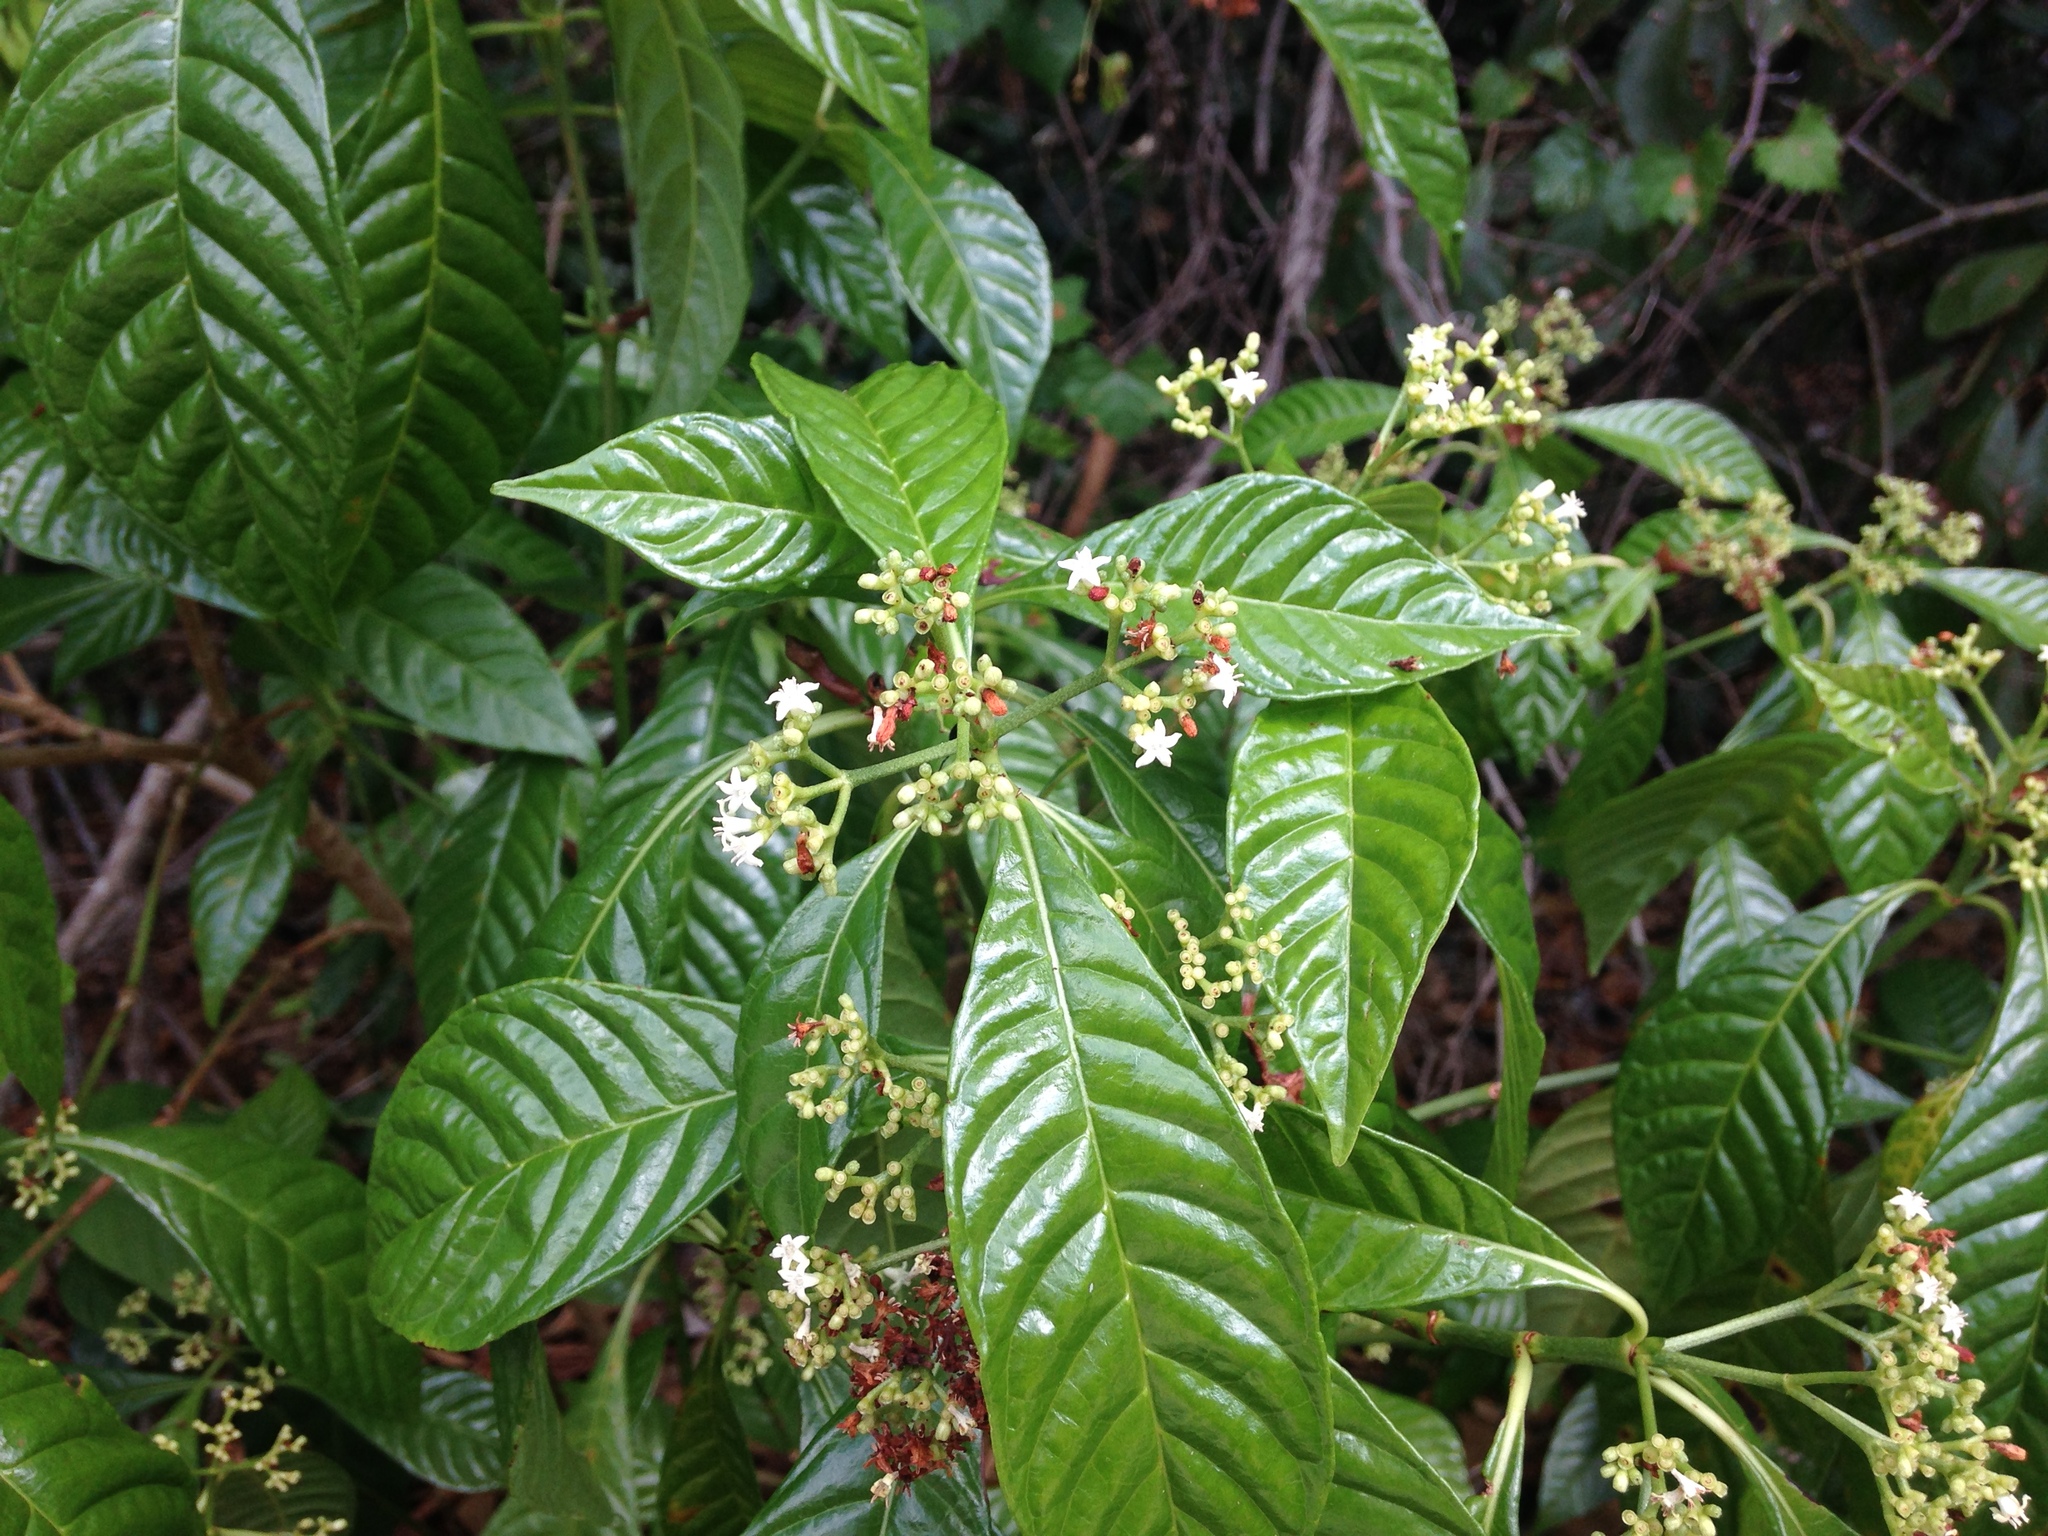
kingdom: Plantae
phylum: Tracheophyta
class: Magnoliopsida
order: Gentianales
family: Rubiaceae
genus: Psychotria
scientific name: Psychotria nervosa
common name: Bastard cankerberry
